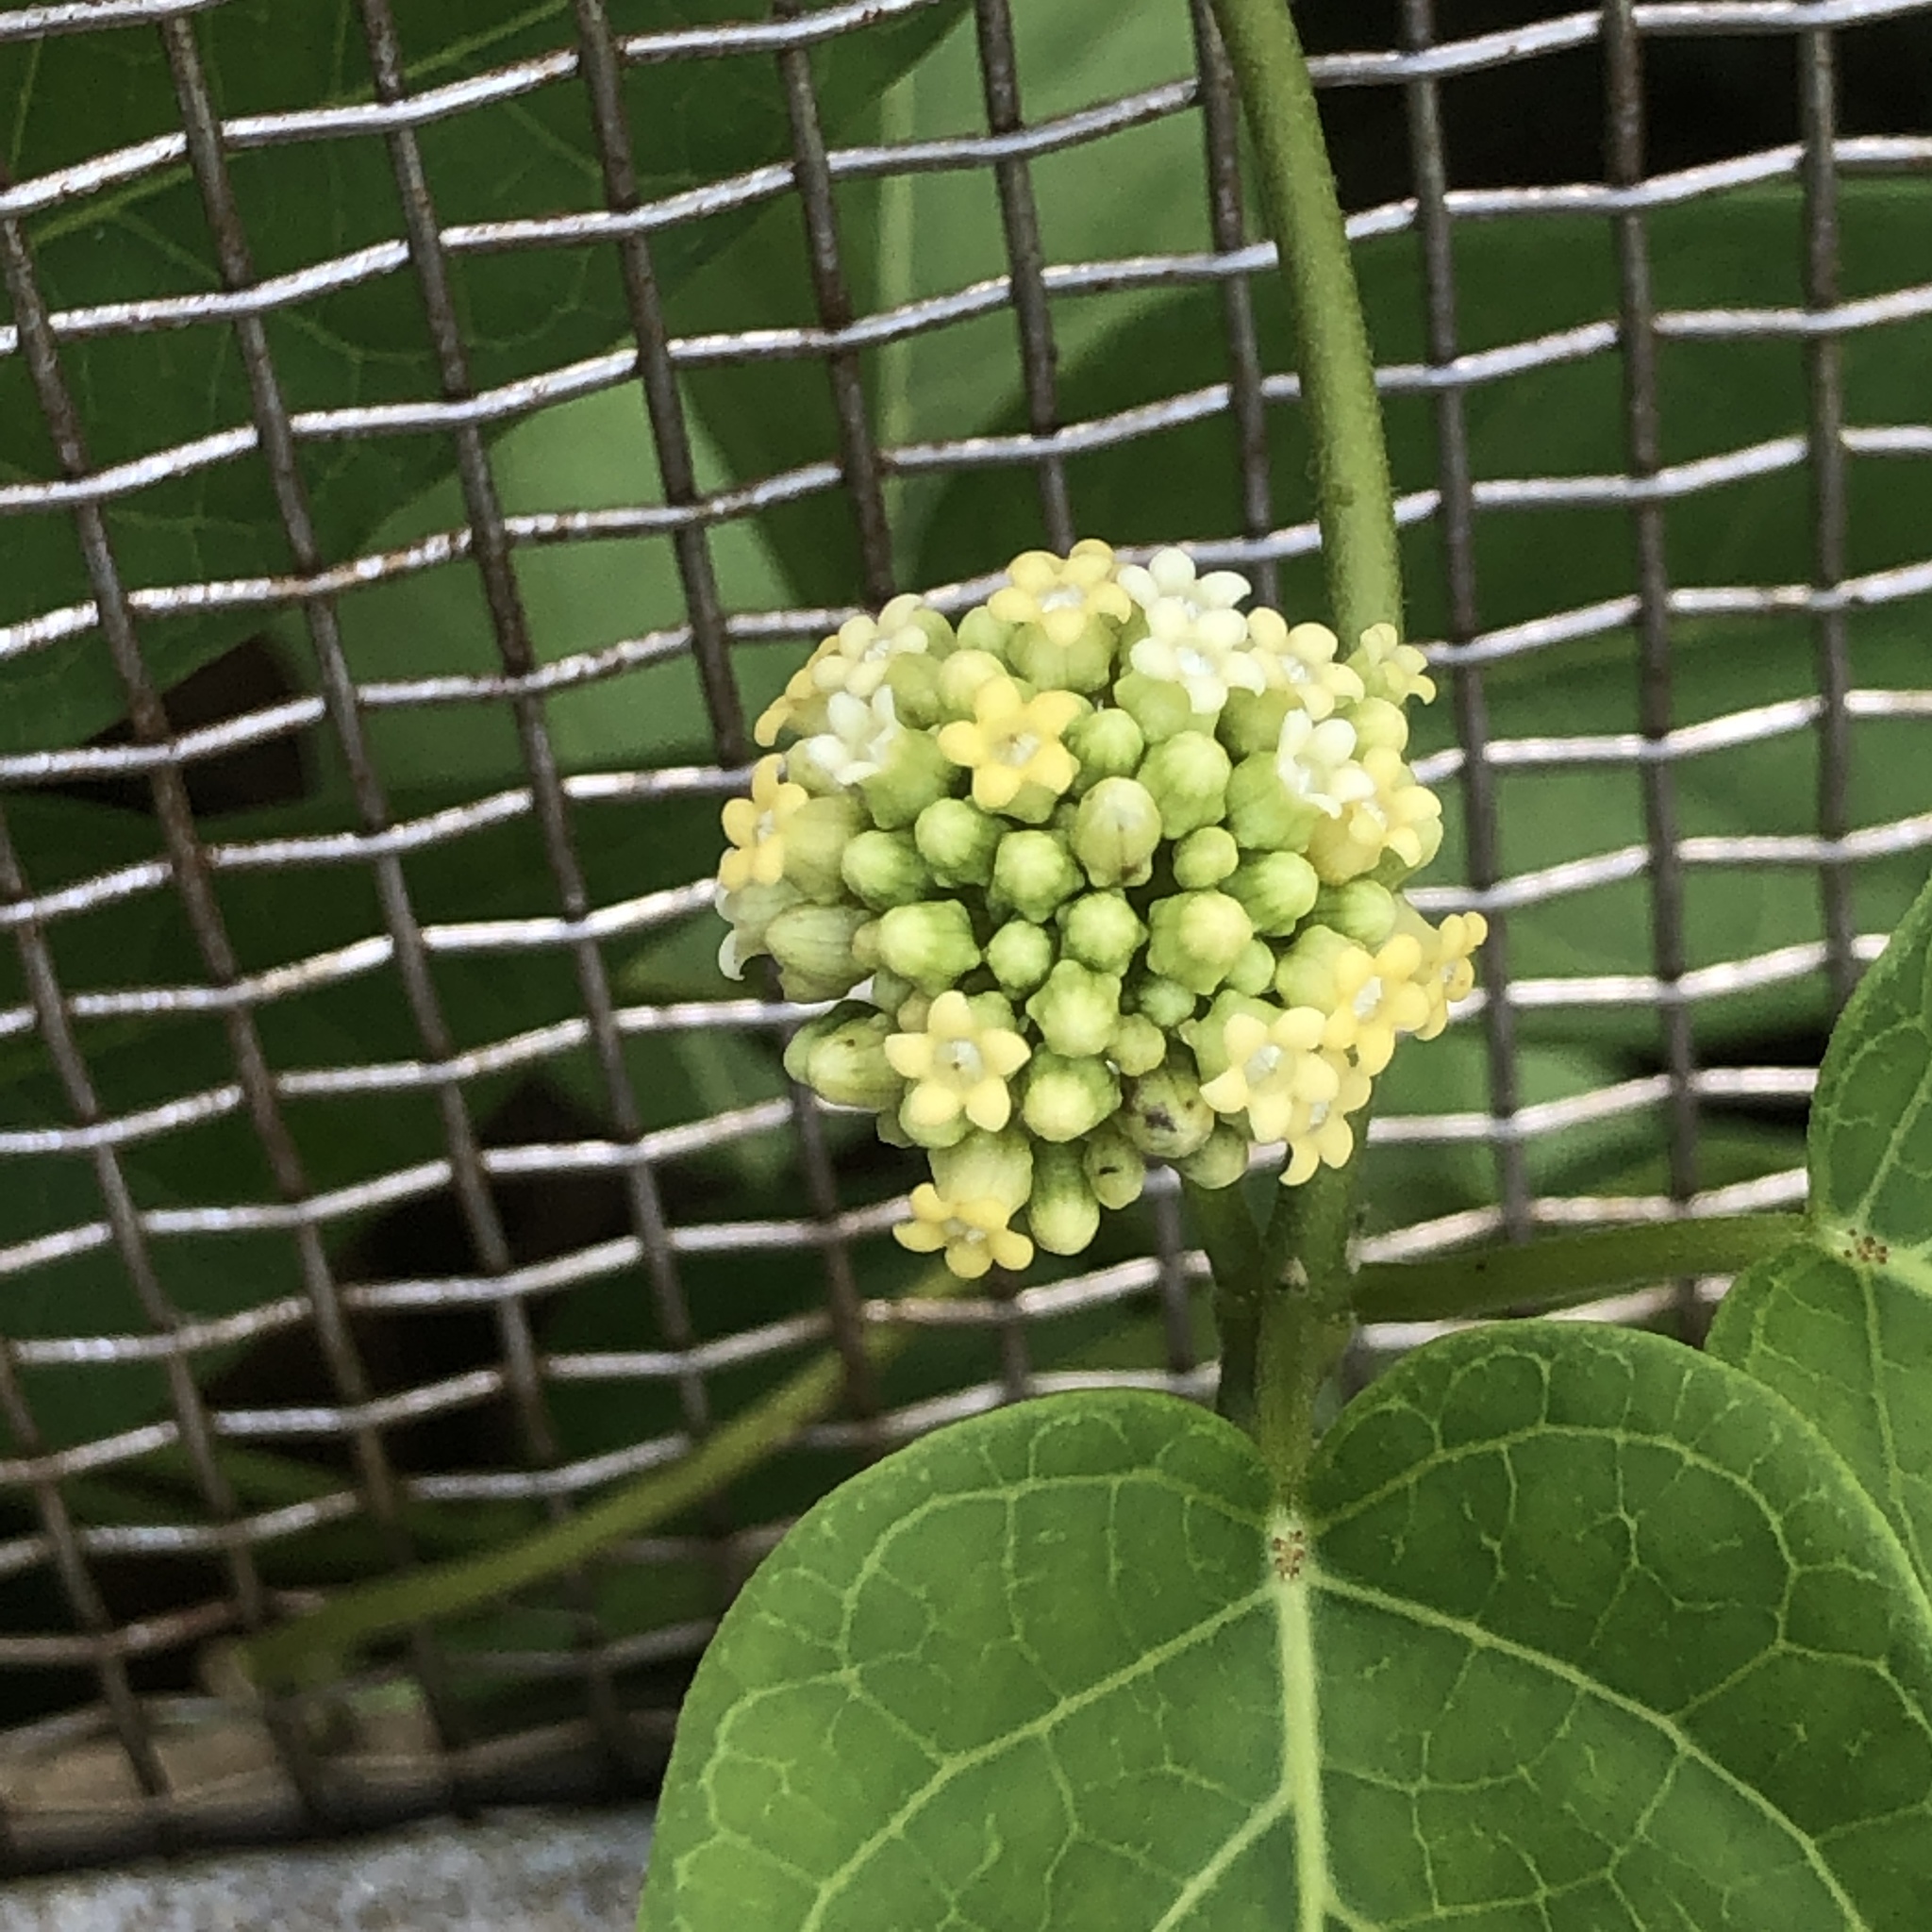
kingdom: Plantae
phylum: Tracheophyta
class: Magnoliopsida
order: Gentianales
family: Apocynaceae
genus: Marsdenia
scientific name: Marsdenia tinctoria
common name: Climbing-indigo
